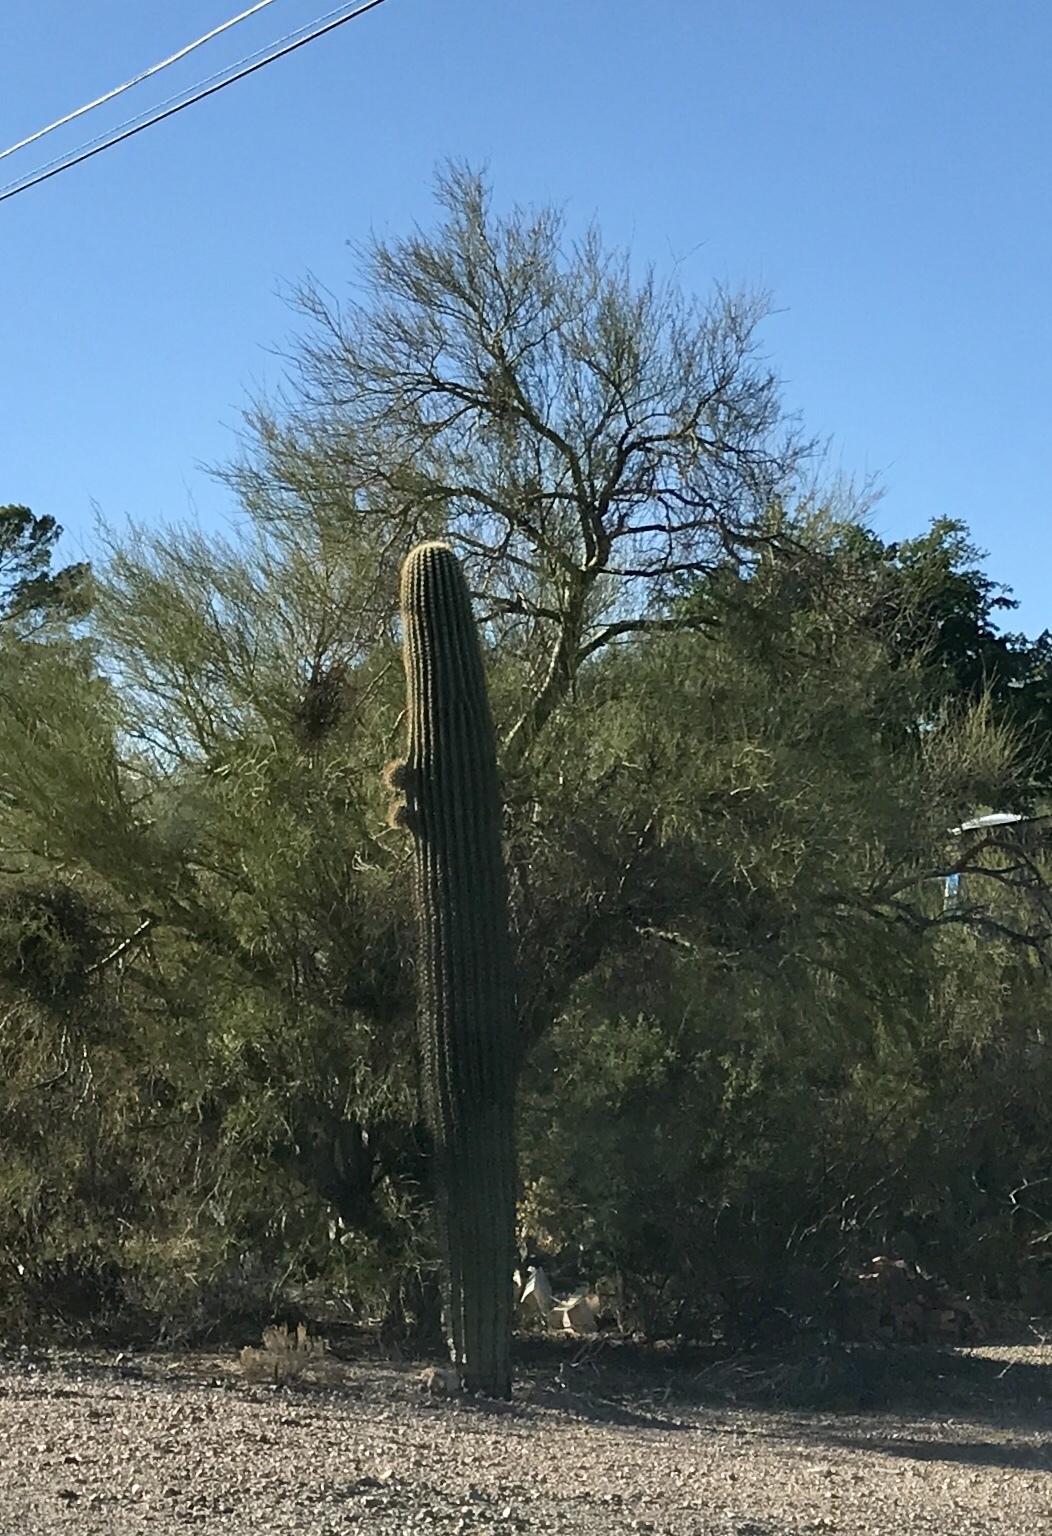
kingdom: Plantae
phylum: Tracheophyta
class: Magnoliopsida
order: Caryophyllales
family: Cactaceae
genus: Carnegiea
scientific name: Carnegiea gigantea
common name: Saguaro
